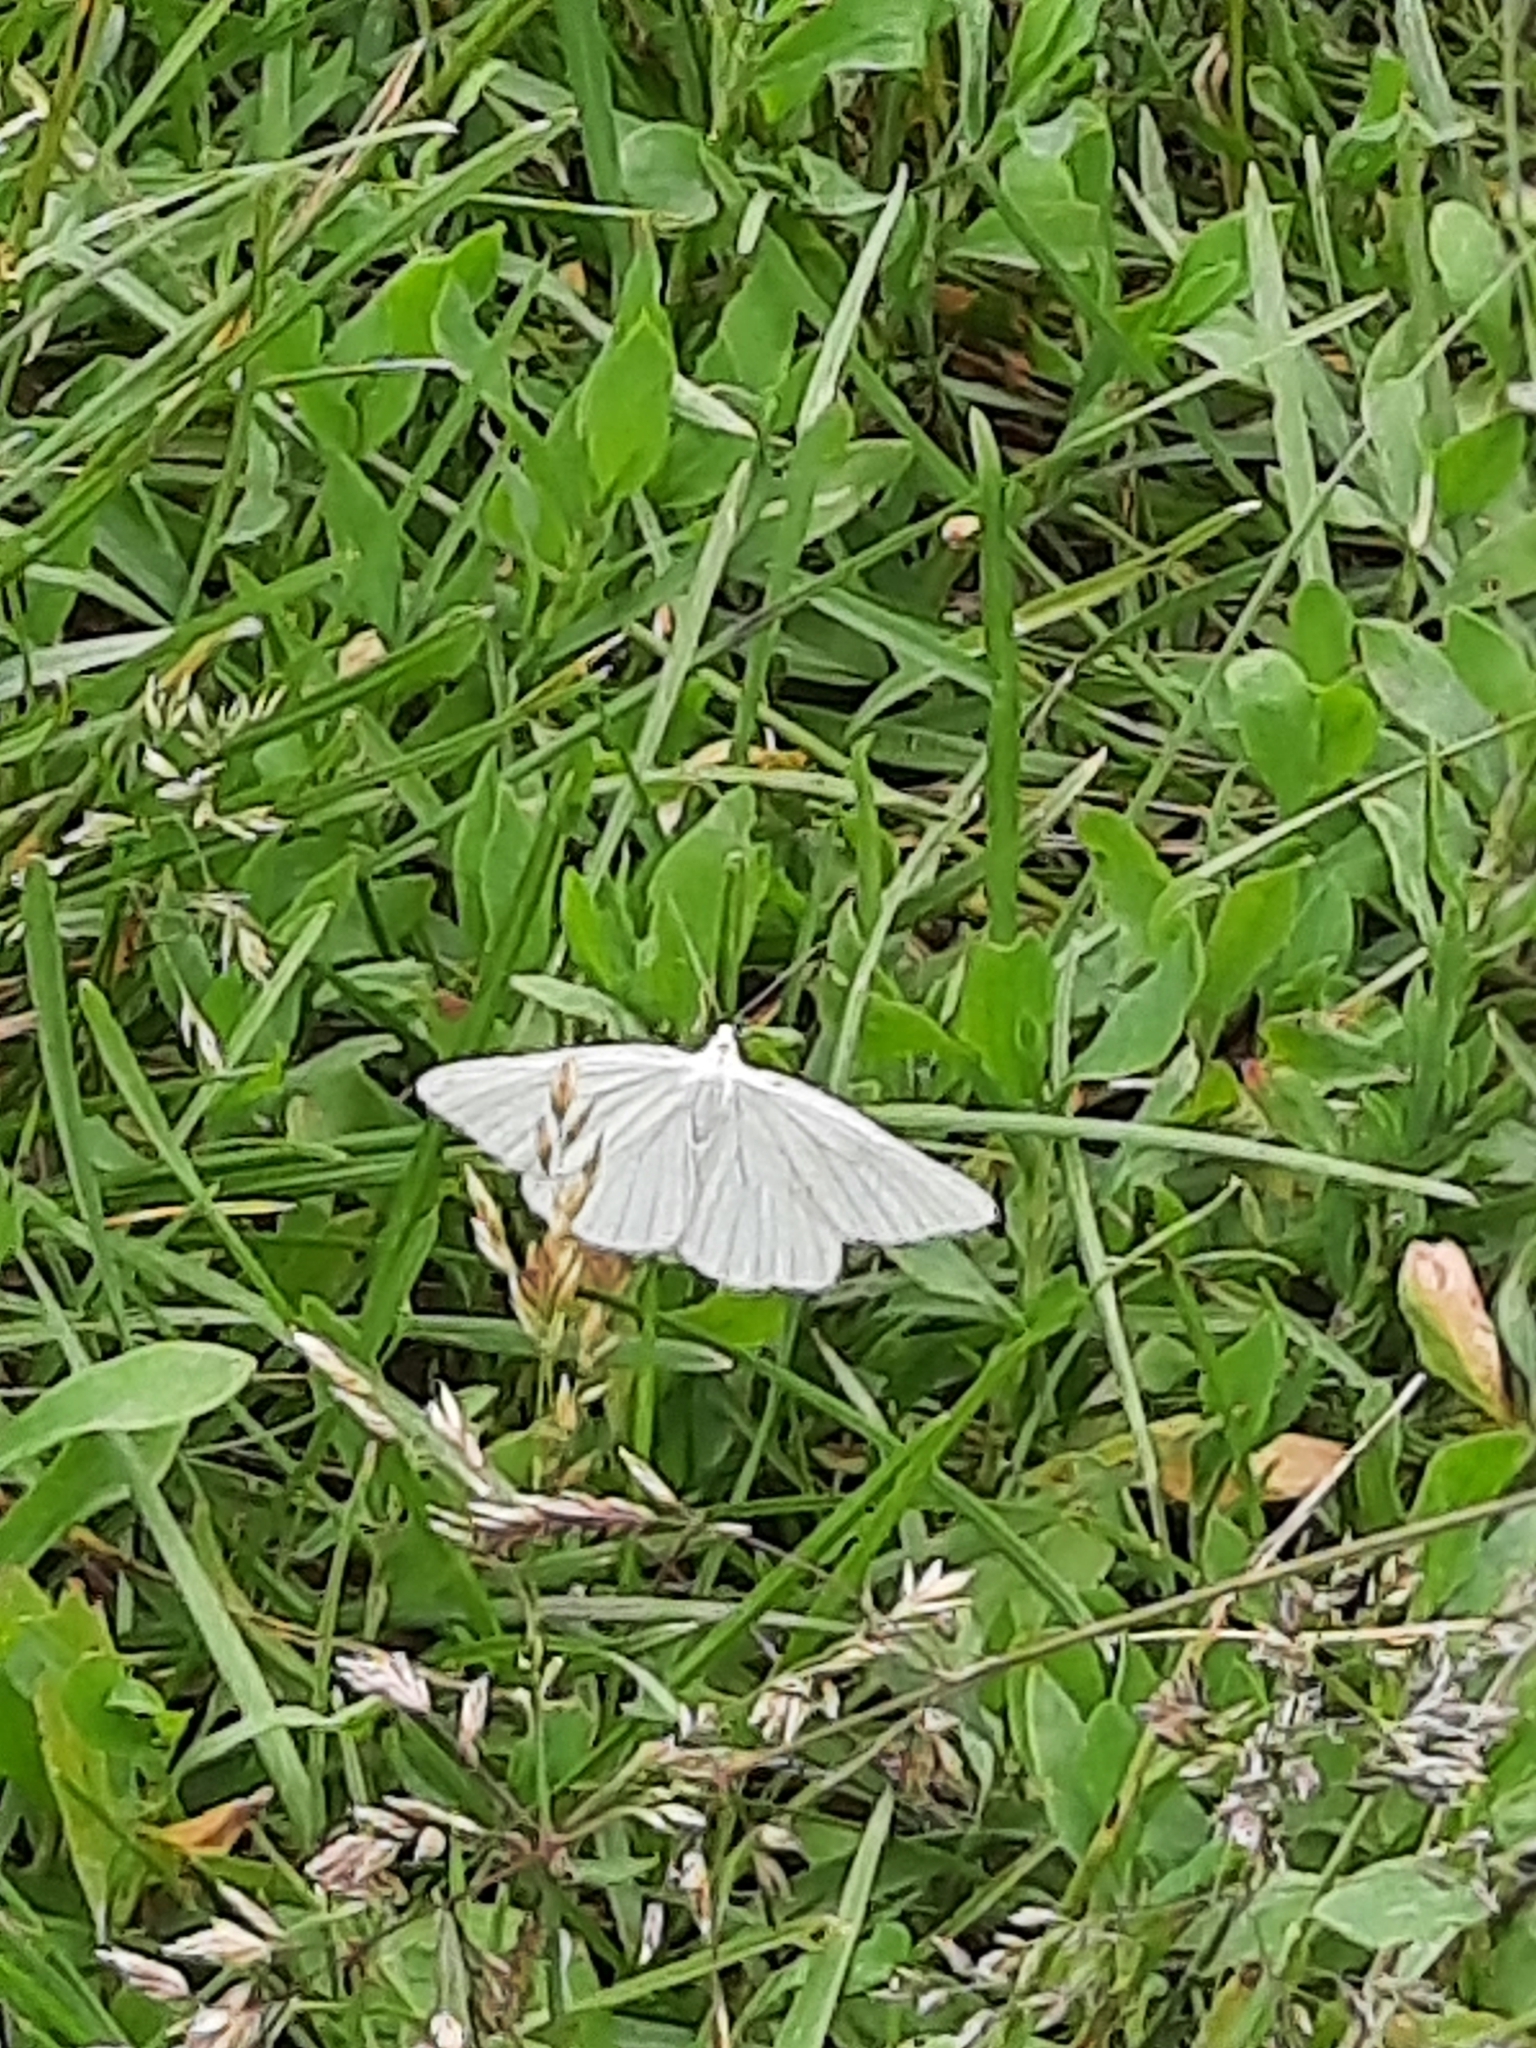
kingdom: Animalia
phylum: Arthropoda
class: Insecta
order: Lepidoptera
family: Geometridae
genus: Siona
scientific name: Siona lineata
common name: Black-veined moth
